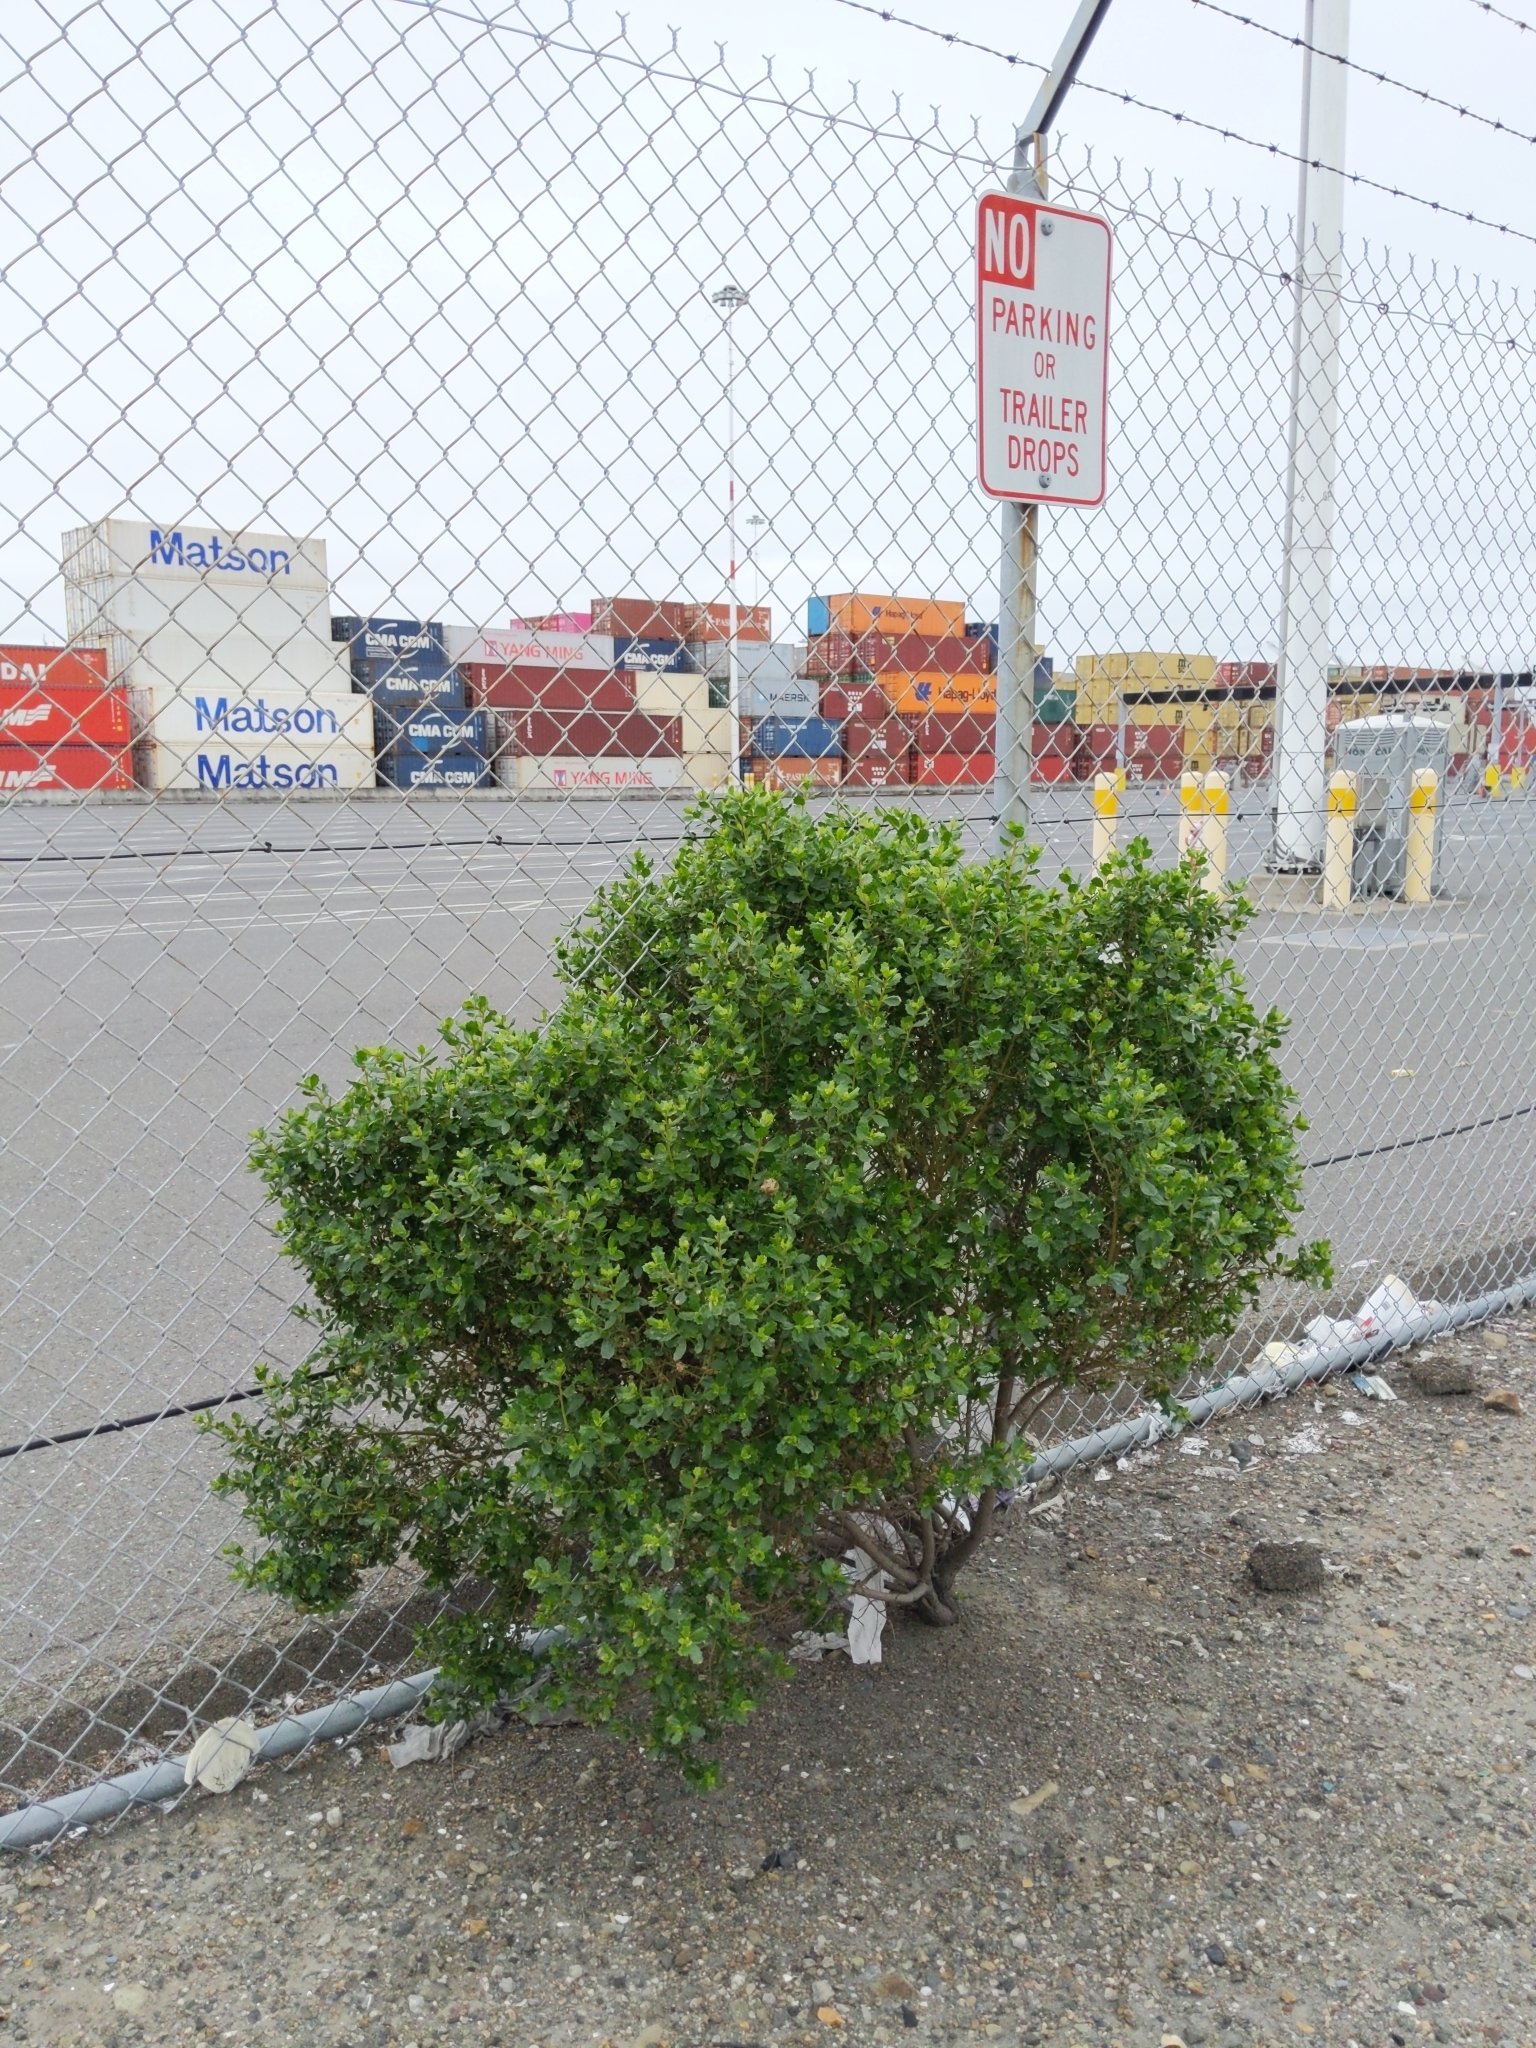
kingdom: Plantae
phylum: Tracheophyta
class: Magnoliopsida
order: Asterales
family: Asteraceae
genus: Baccharis
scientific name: Baccharis pilularis
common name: Coyotebrush
